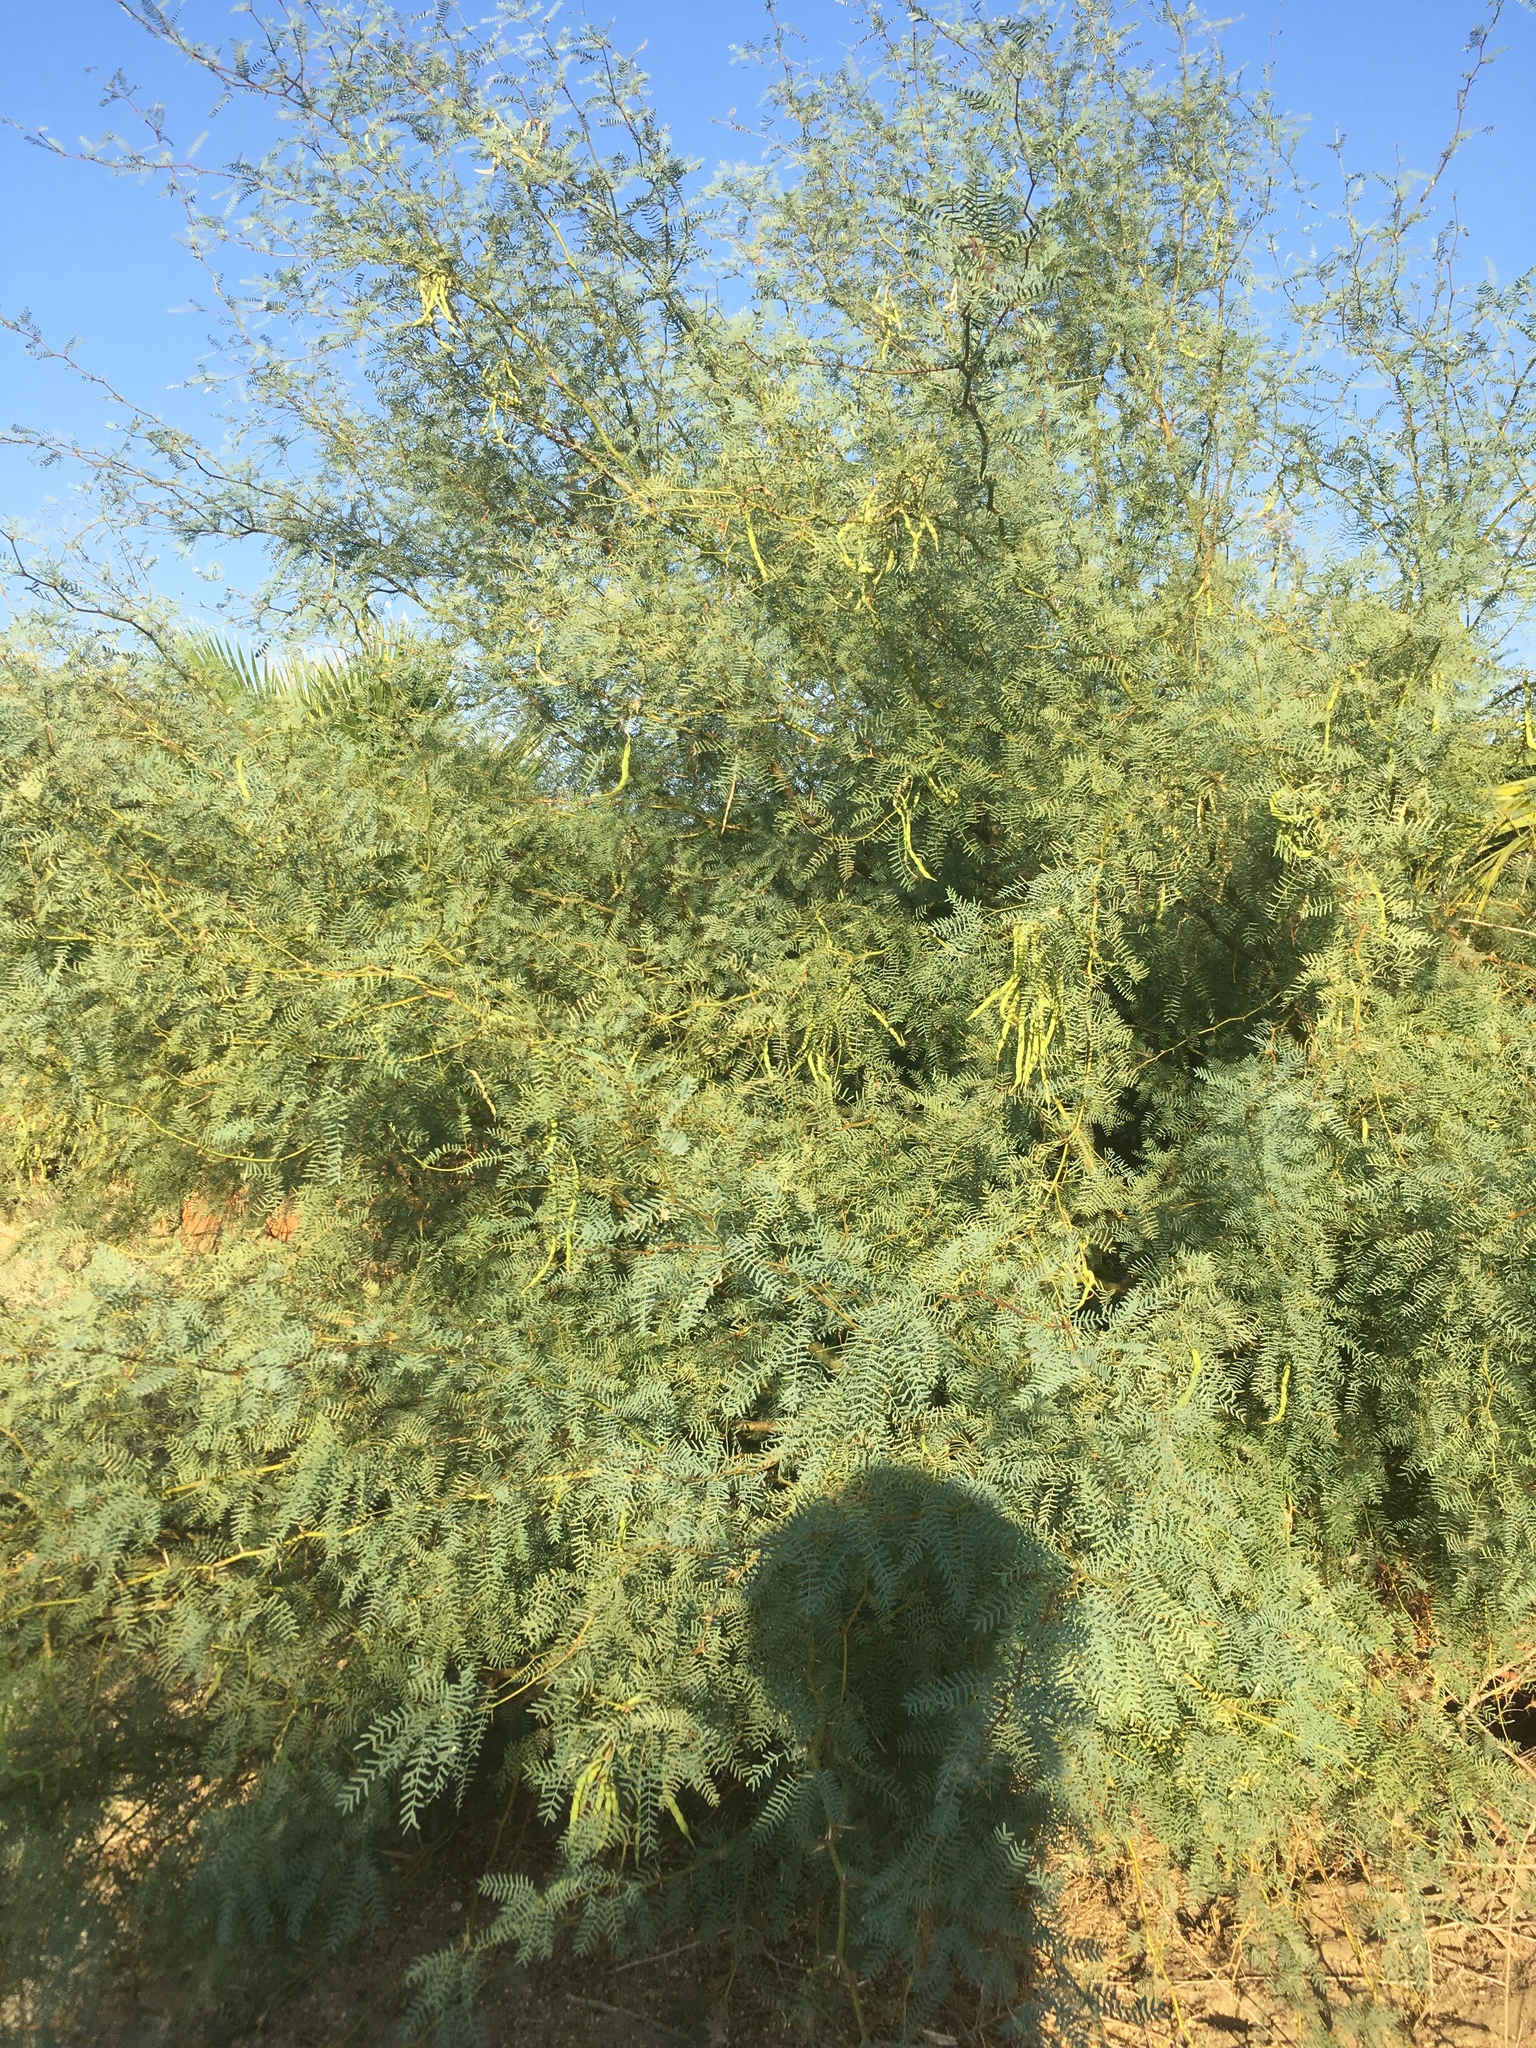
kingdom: Plantae
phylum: Tracheophyta
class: Magnoliopsida
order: Fabales
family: Fabaceae
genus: Prosopis
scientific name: Prosopis pubescens
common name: Screw-bean
